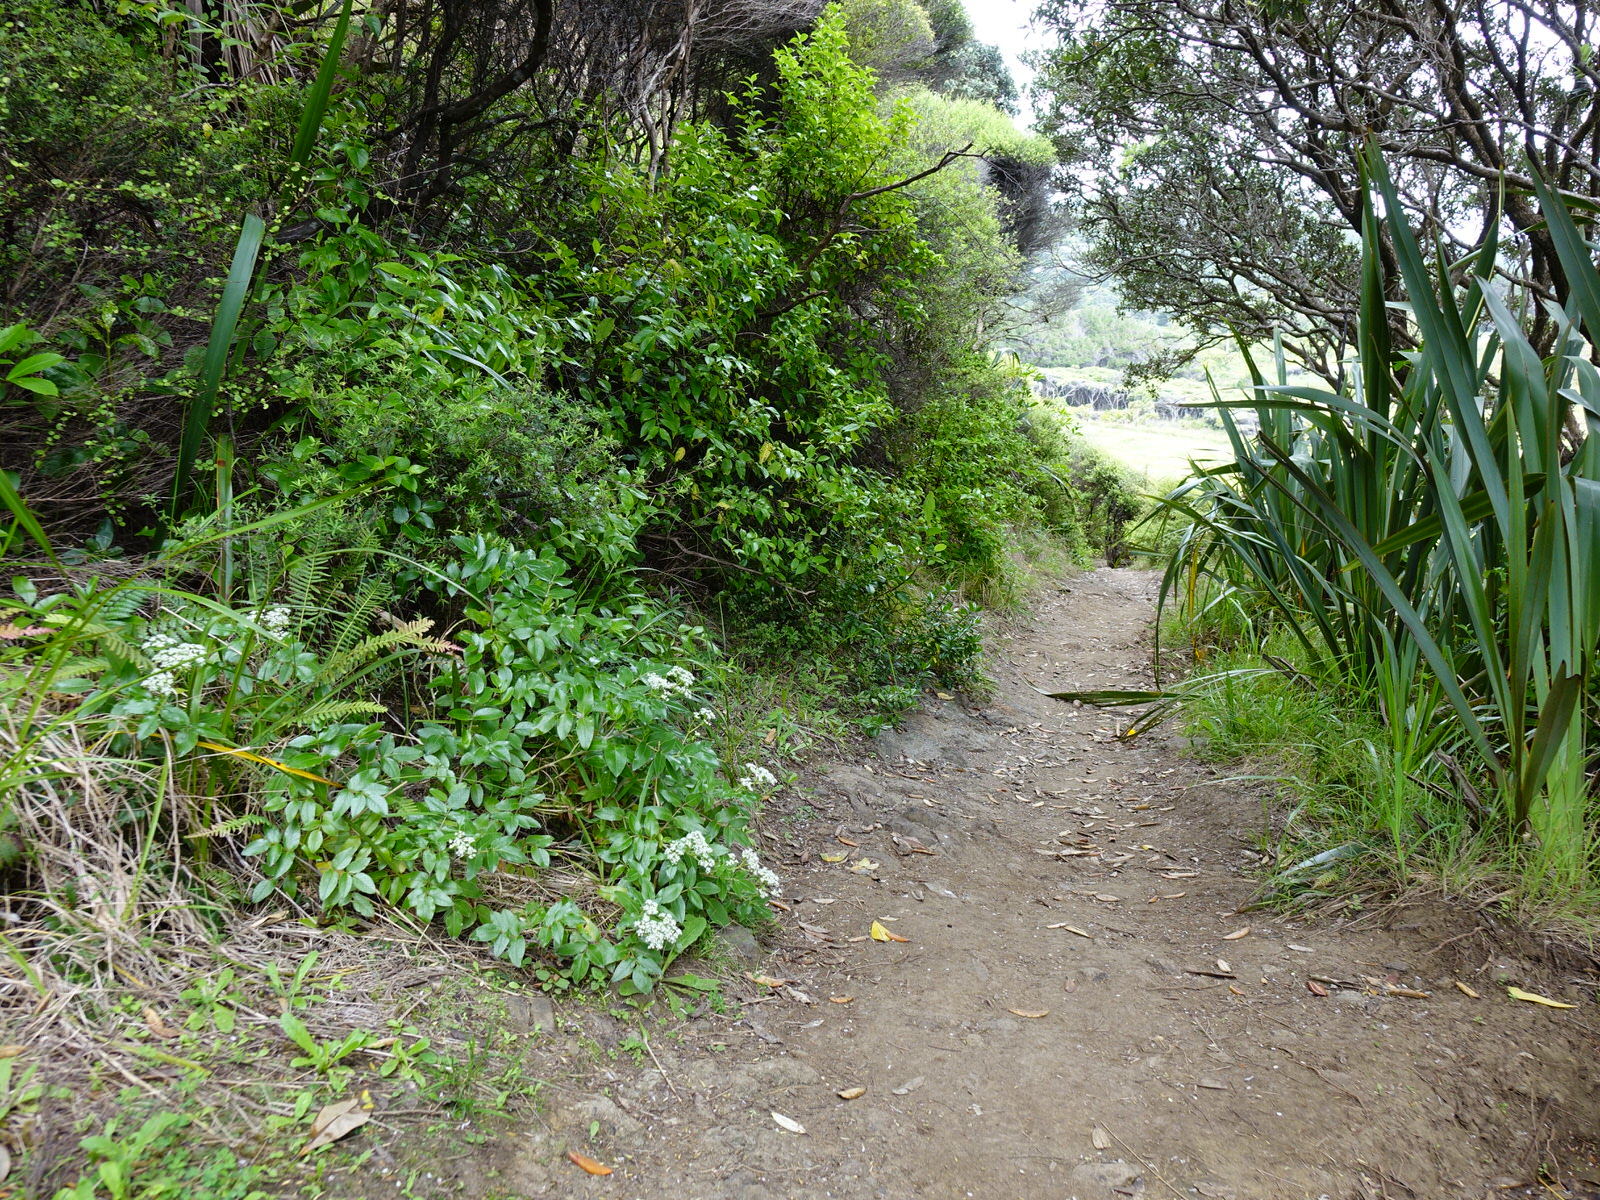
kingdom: Plantae
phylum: Tracheophyta
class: Magnoliopsida
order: Apiales
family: Apiaceae
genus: Scandia
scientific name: Scandia rosifolia
